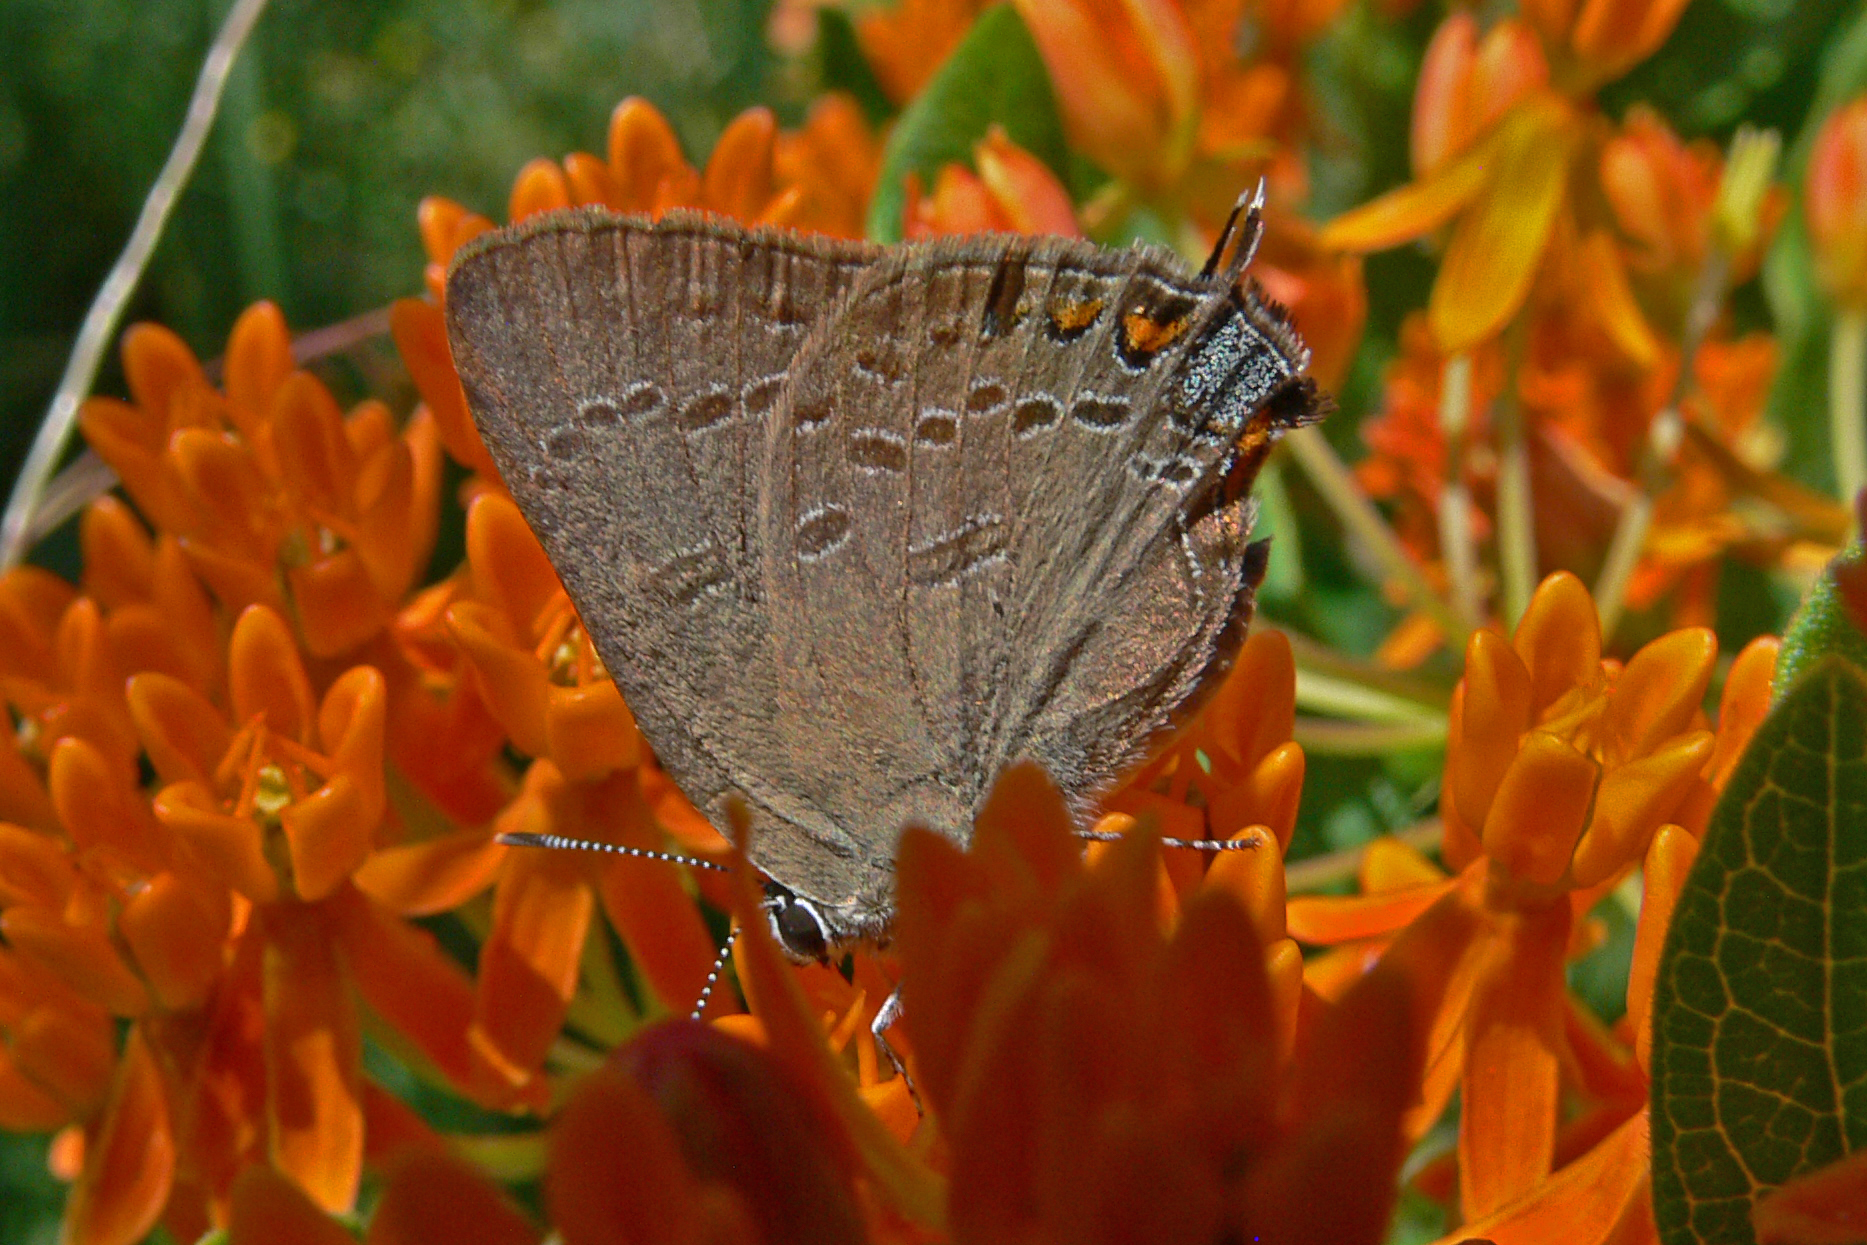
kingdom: Animalia
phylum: Arthropoda
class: Insecta
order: Lepidoptera
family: Lycaenidae
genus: Satyrium
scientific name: Satyrium edwardsii
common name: Edwards' hairstreak
